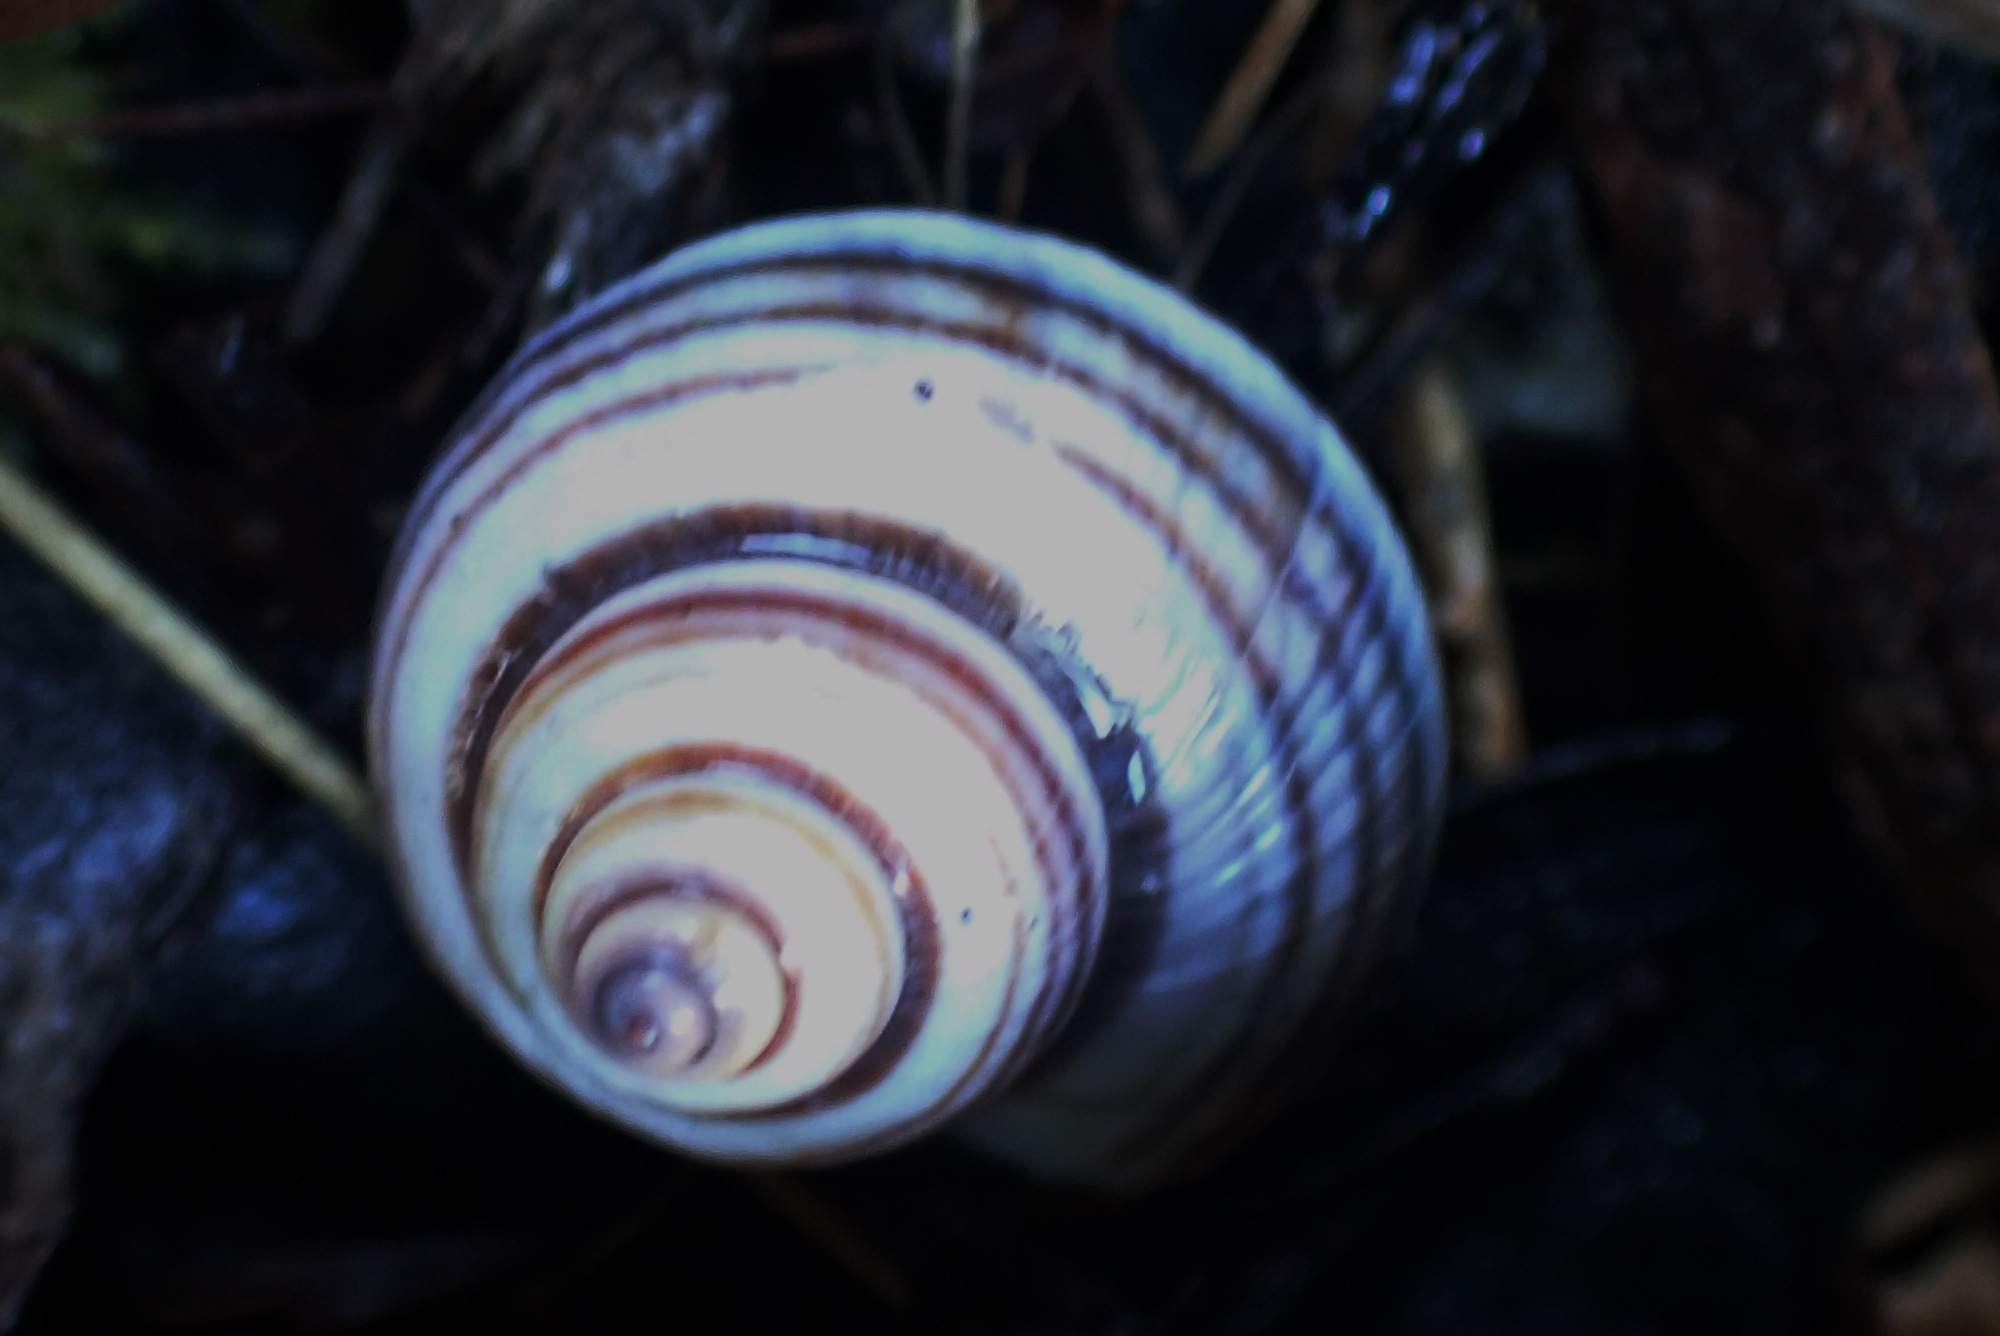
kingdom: Animalia
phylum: Mollusca
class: Gastropoda
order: Littorinimorpha
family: Pomatiidae
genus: Tropidophora
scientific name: Tropidophora ligata
